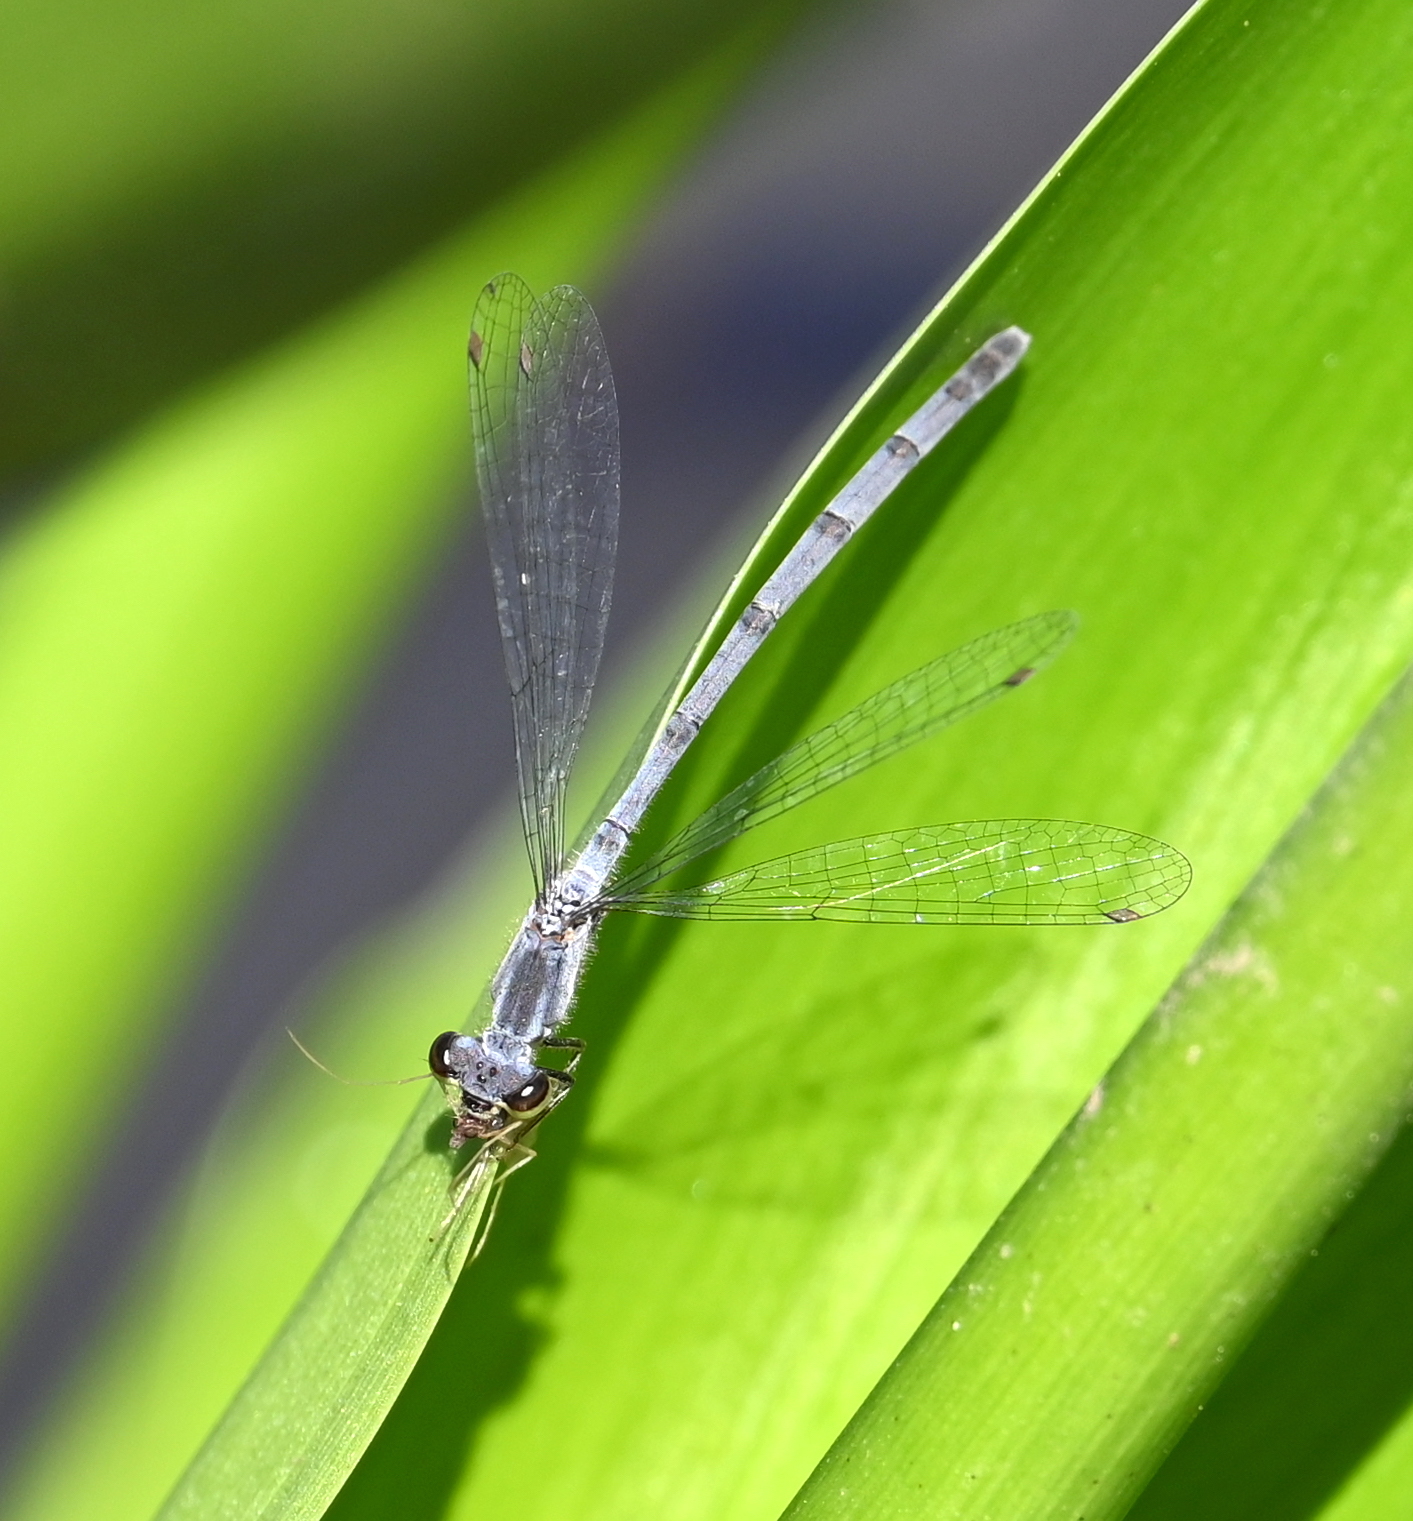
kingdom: Animalia
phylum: Arthropoda
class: Insecta
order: Odonata
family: Coenagrionidae
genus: Ischnura
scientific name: Ischnura posita
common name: Fragile forktail
